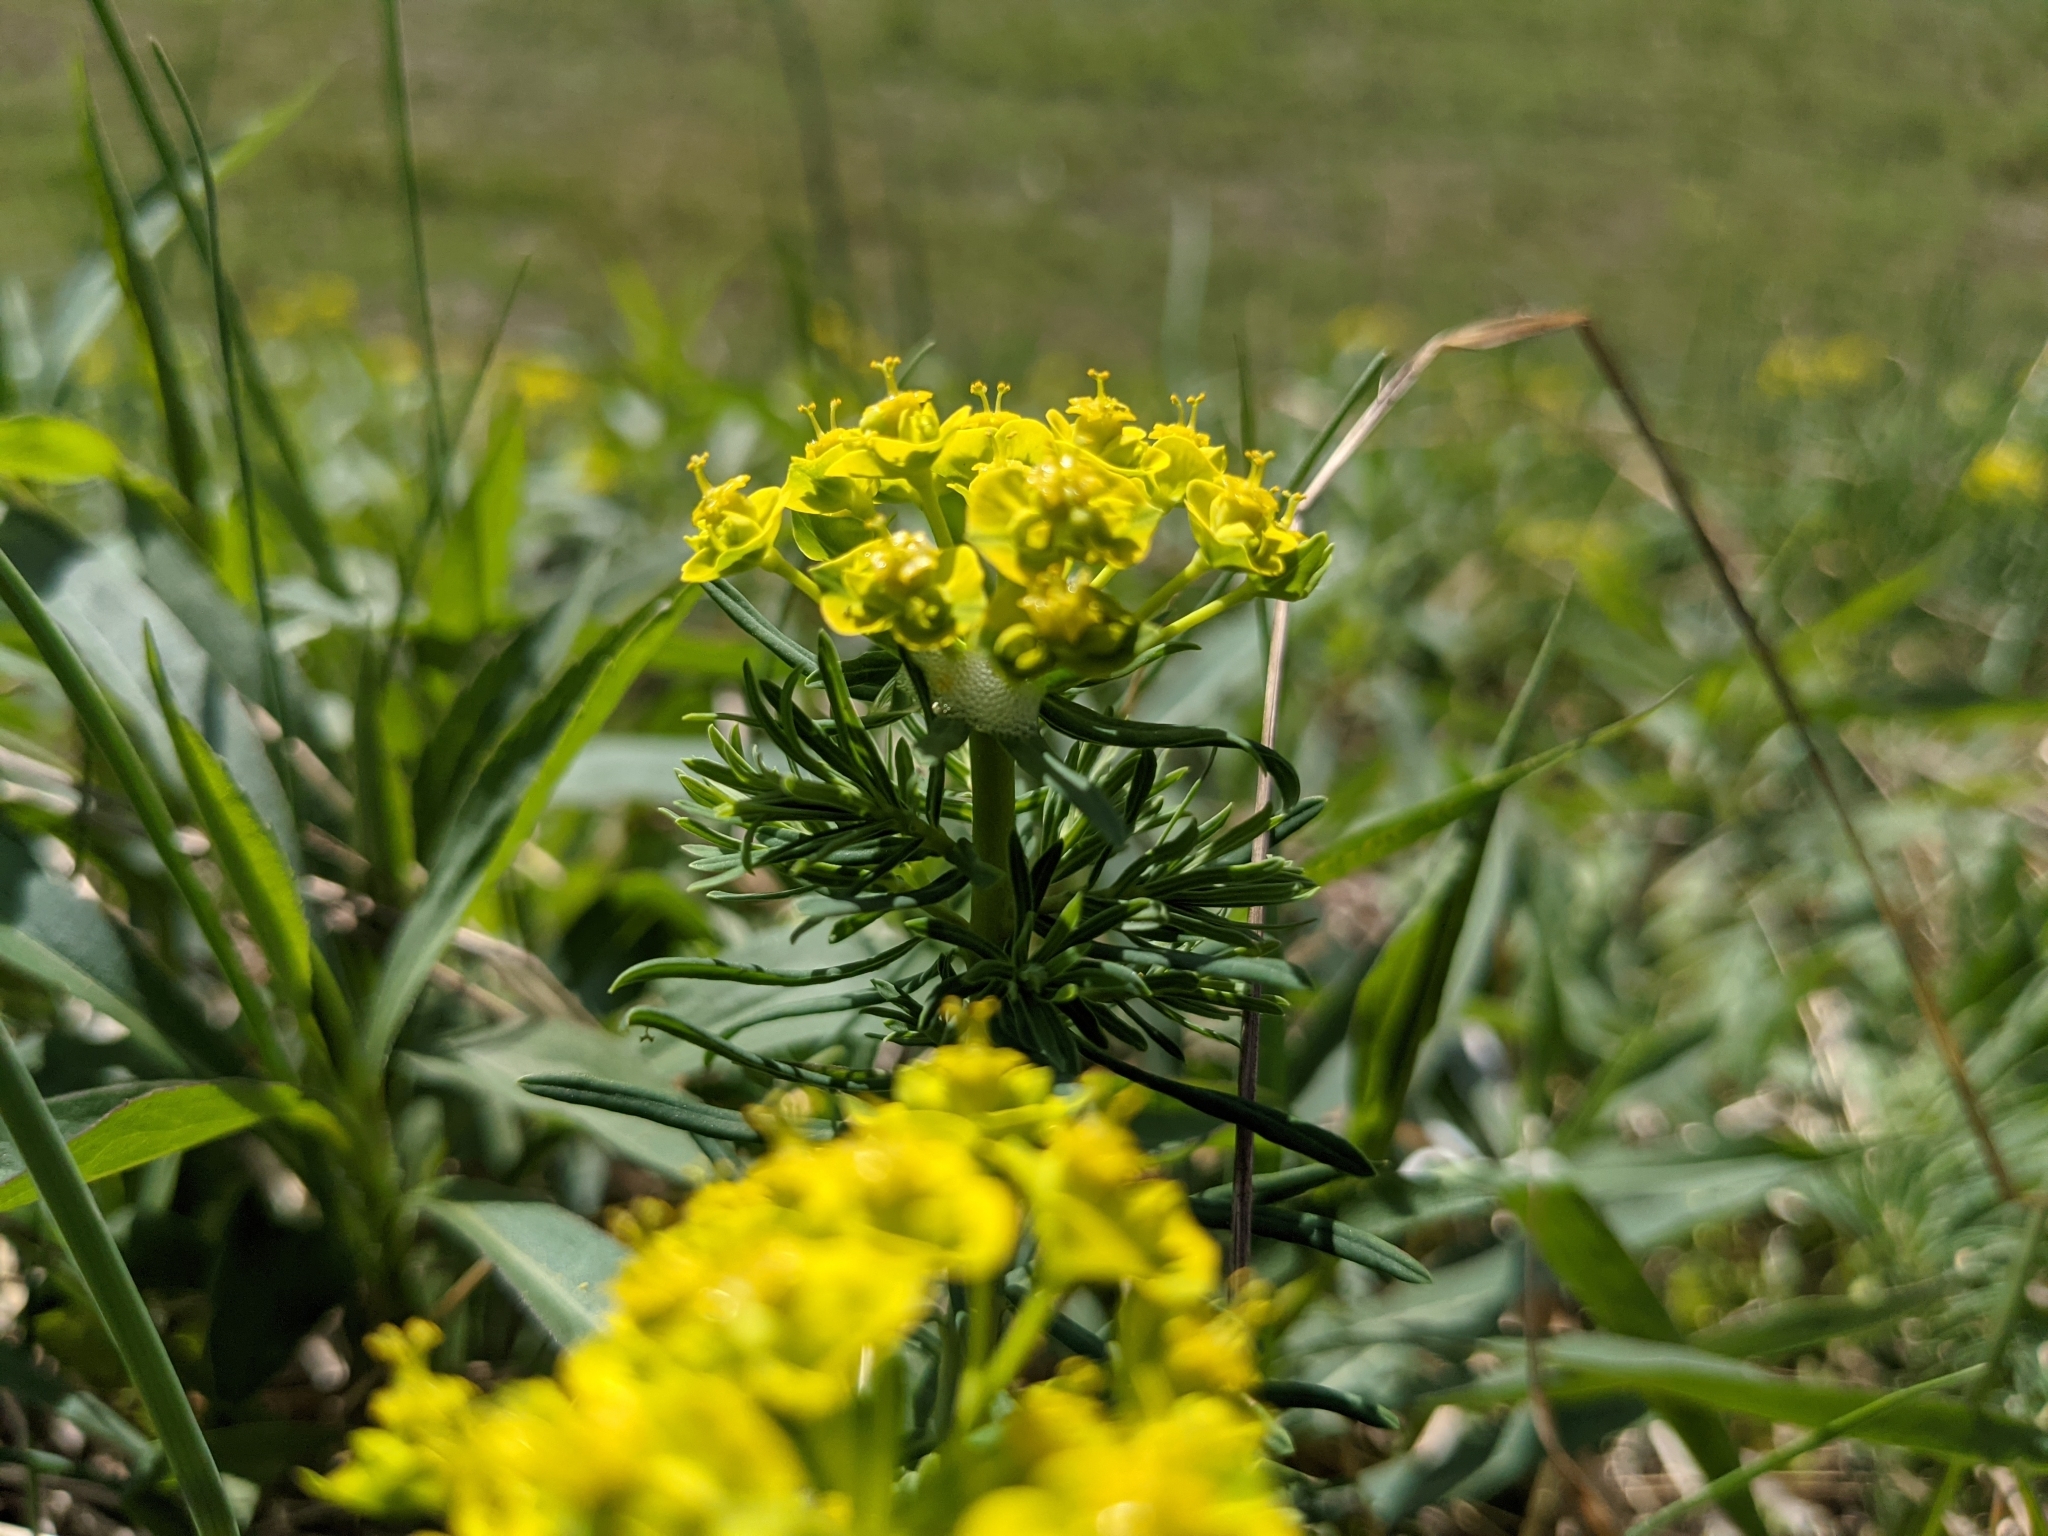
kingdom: Plantae
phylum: Tracheophyta
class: Magnoliopsida
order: Malpighiales
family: Euphorbiaceae
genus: Euphorbia
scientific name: Euphorbia cyparissias
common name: Cypress spurge
